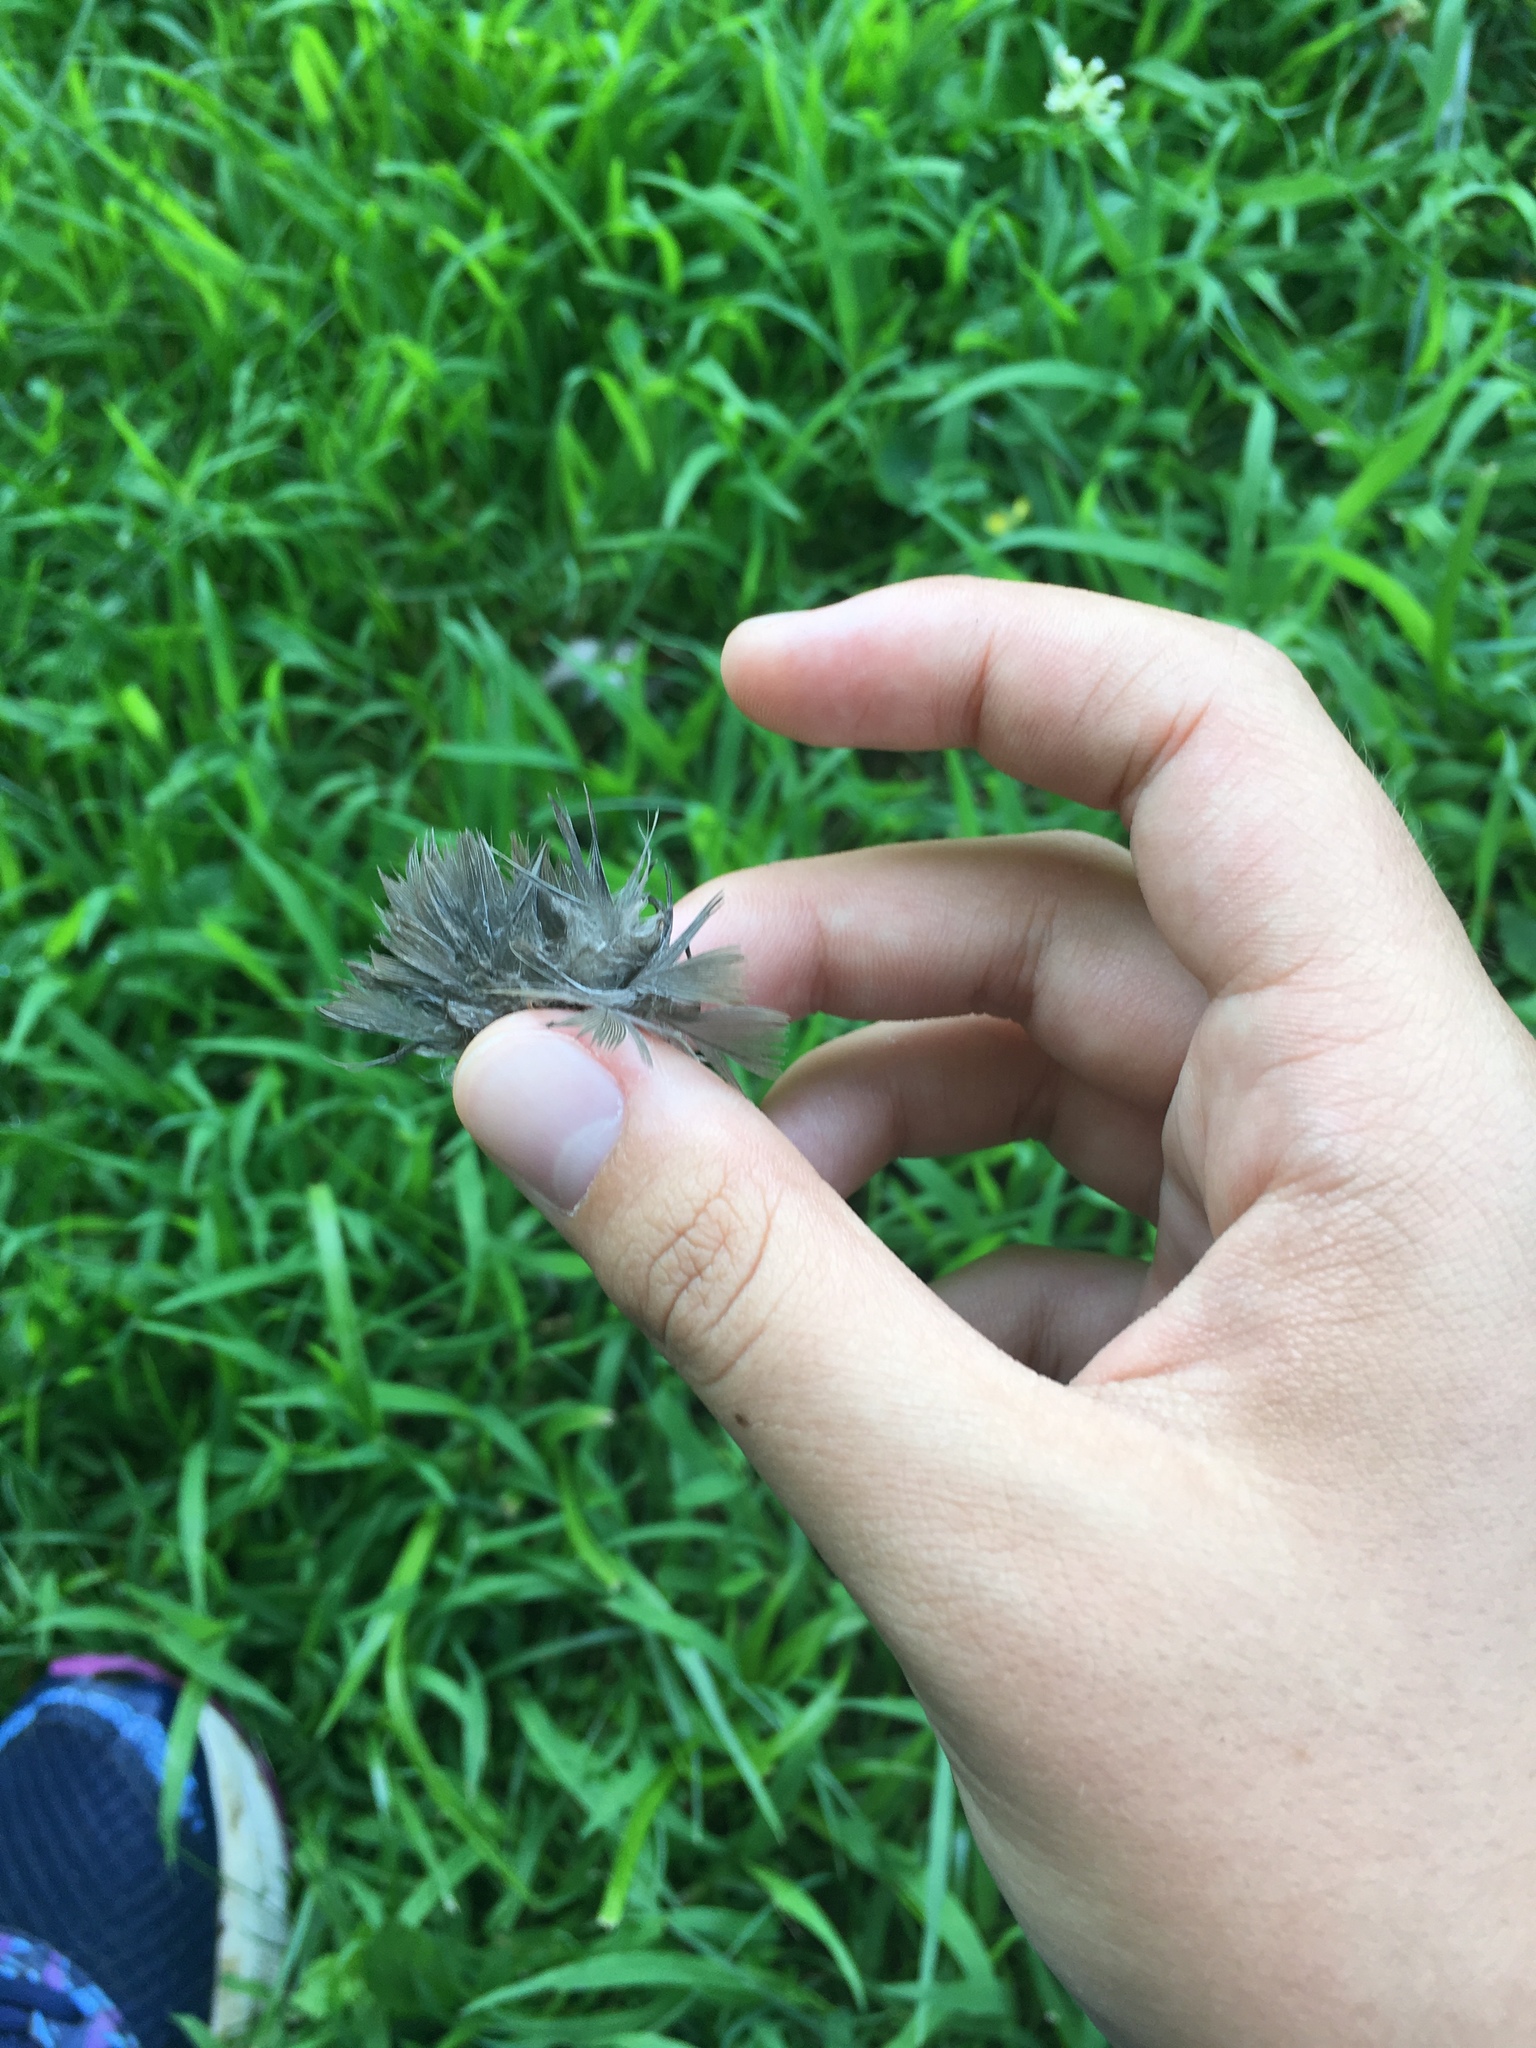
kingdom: Animalia
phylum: Chordata
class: Aves
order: Columbiformes
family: Columbidae
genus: Zenaida
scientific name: Zenaida macroura
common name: Mourning dove
